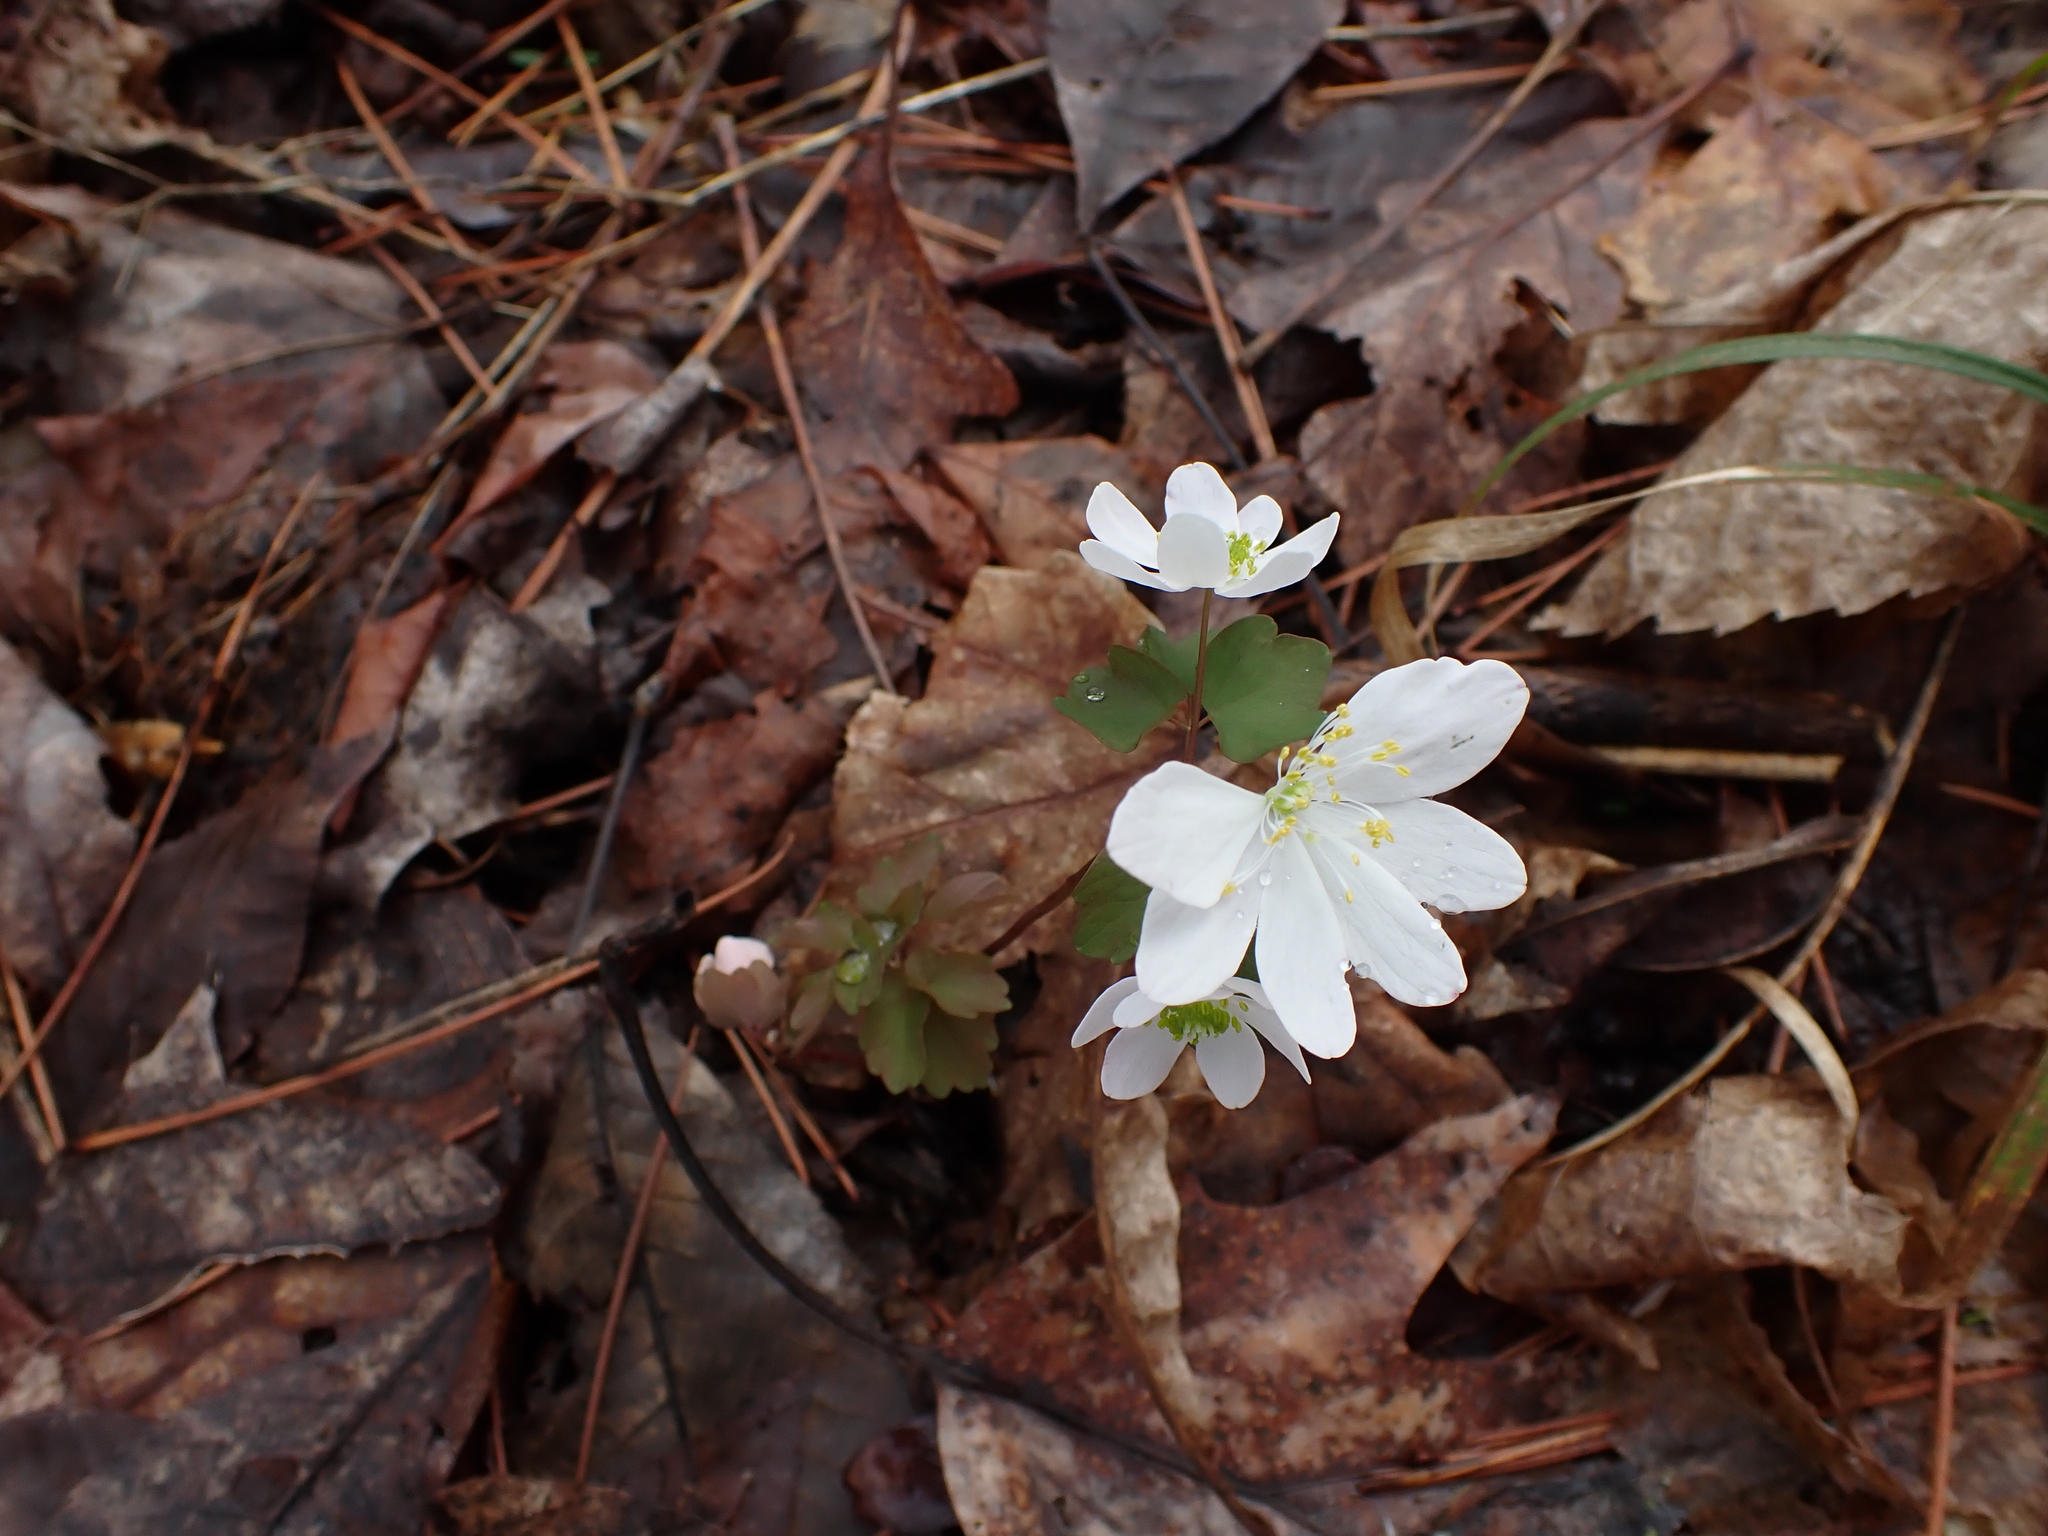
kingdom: Plantae
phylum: Tracheophyta
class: Magnoliopsida
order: Ranunculales
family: Ranunculaceae
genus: Thalictrum
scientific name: Thalictrum thalictroides
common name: Rue-anemone
